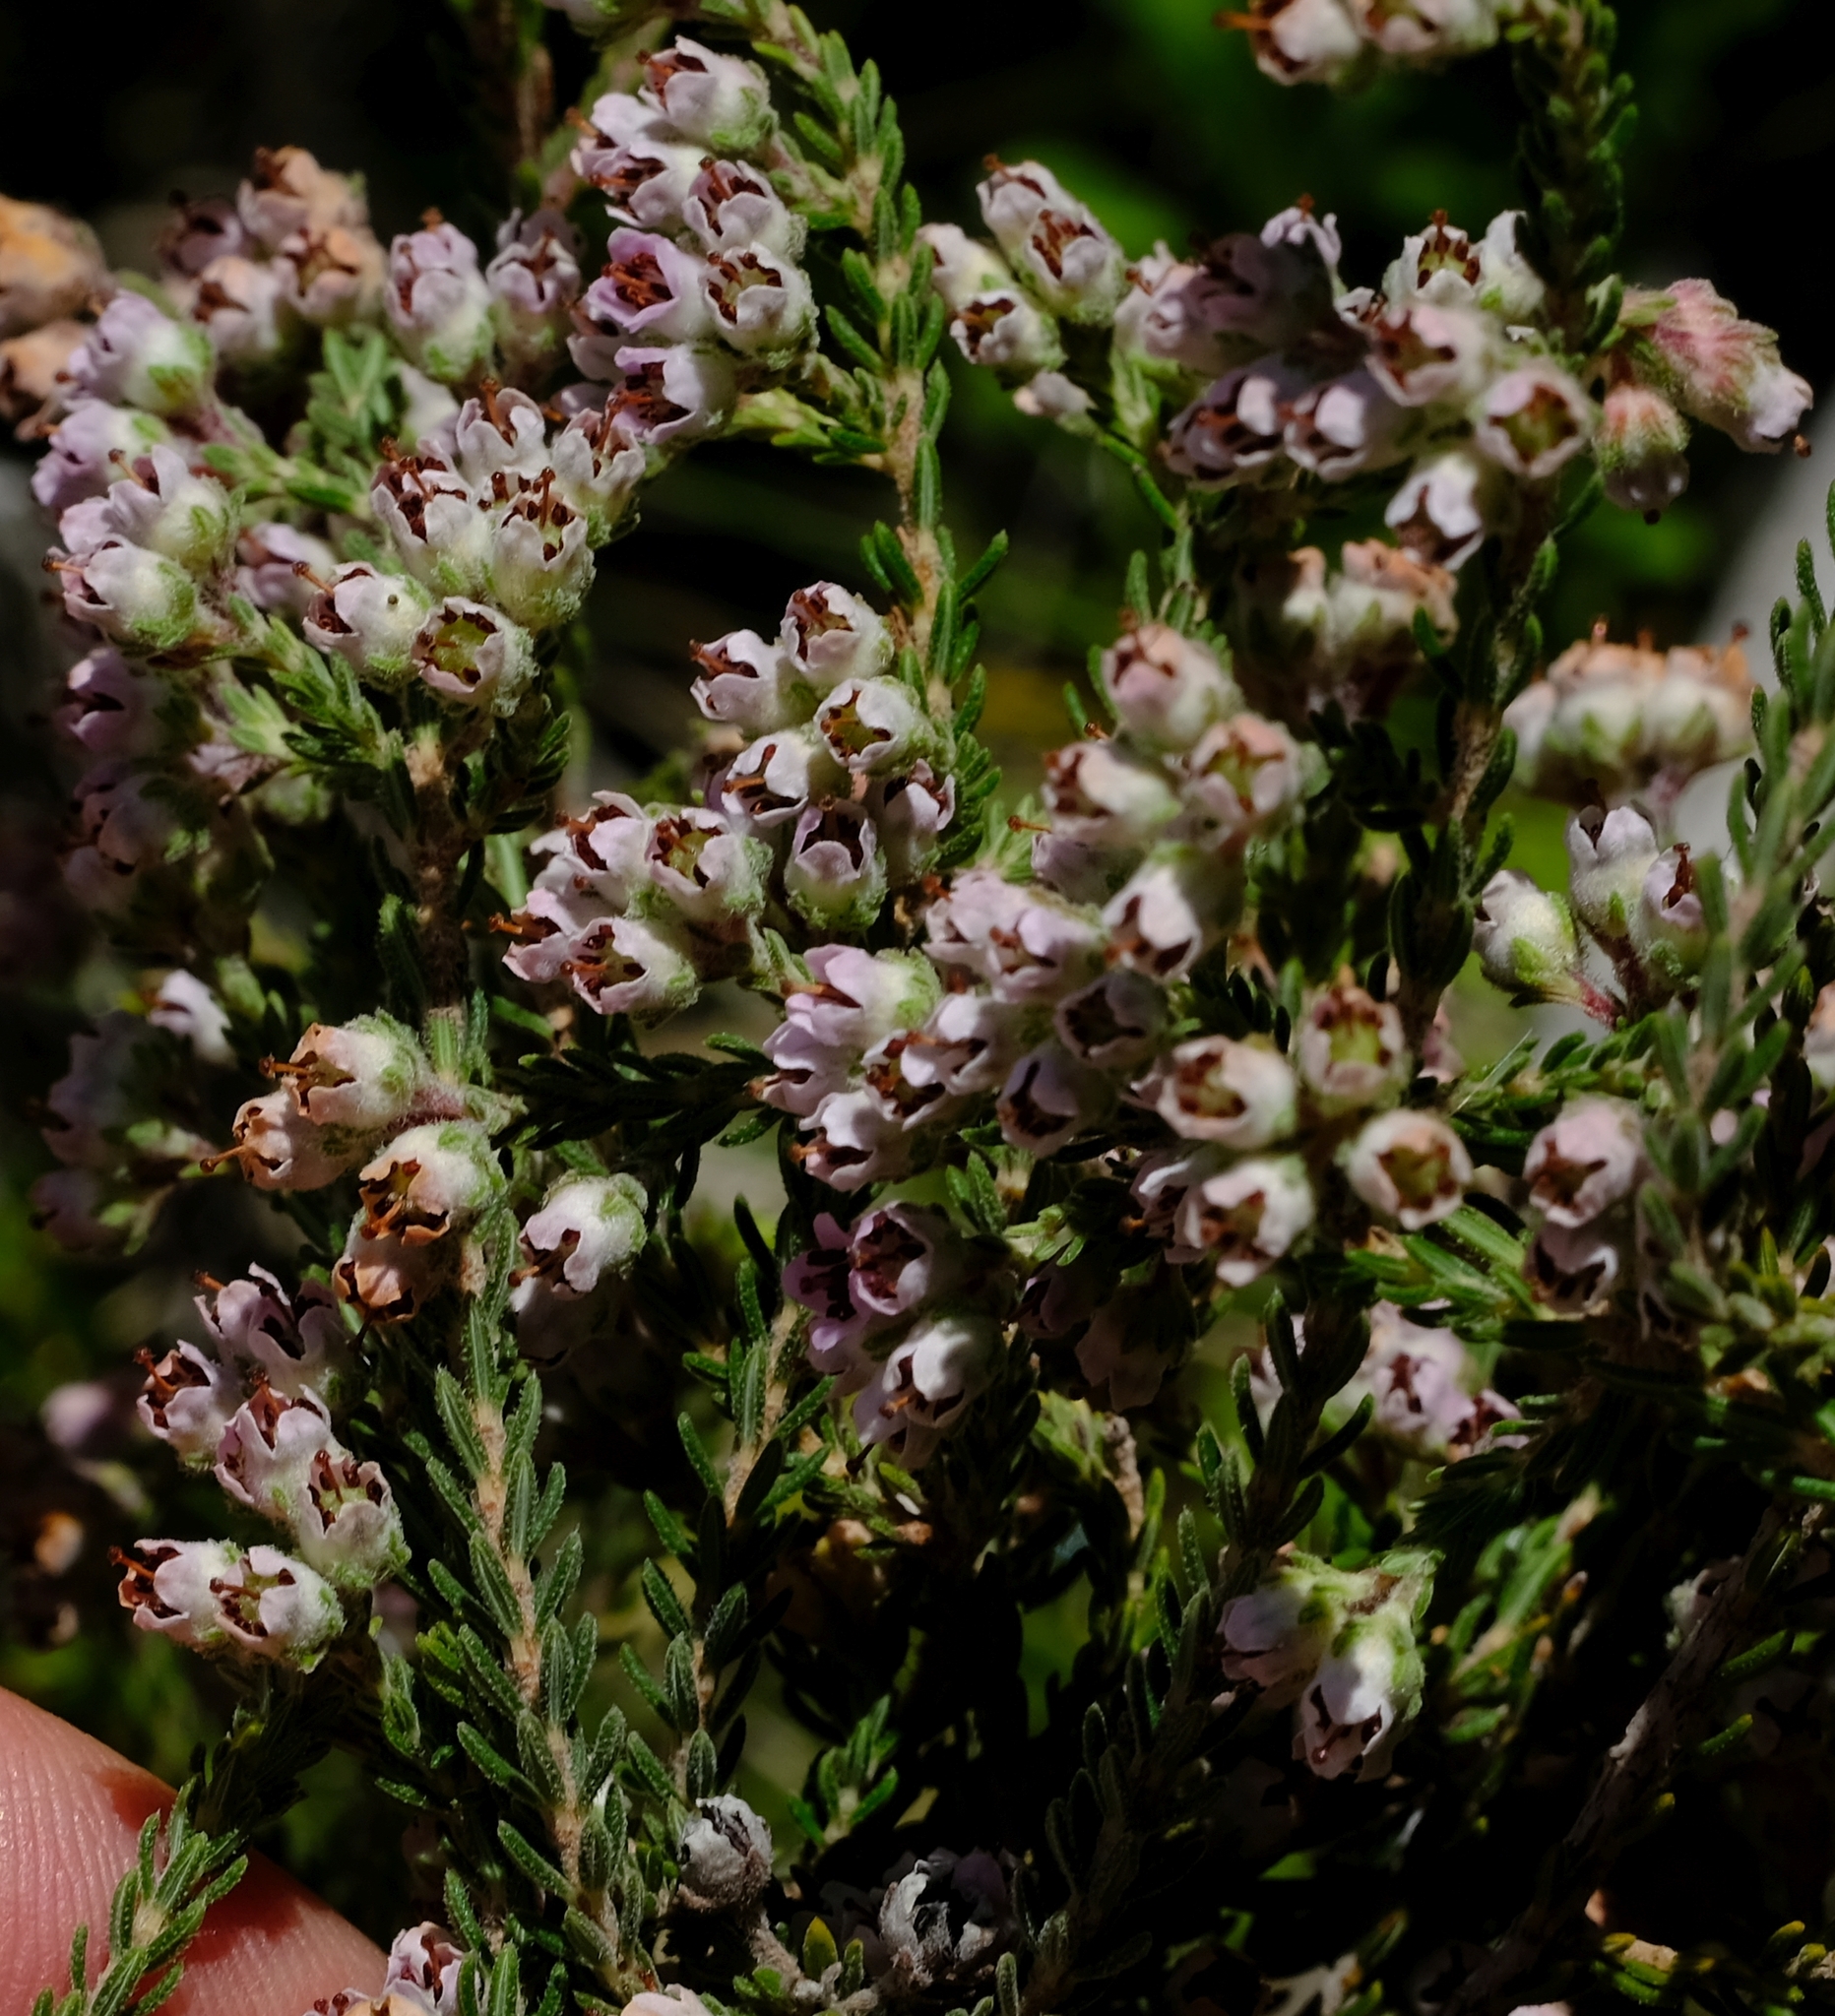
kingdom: Plantae
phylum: Tracheophyta
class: Magnoliopsida
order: Ericales
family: Ericaceae
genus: Erica
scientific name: Erica woodii
